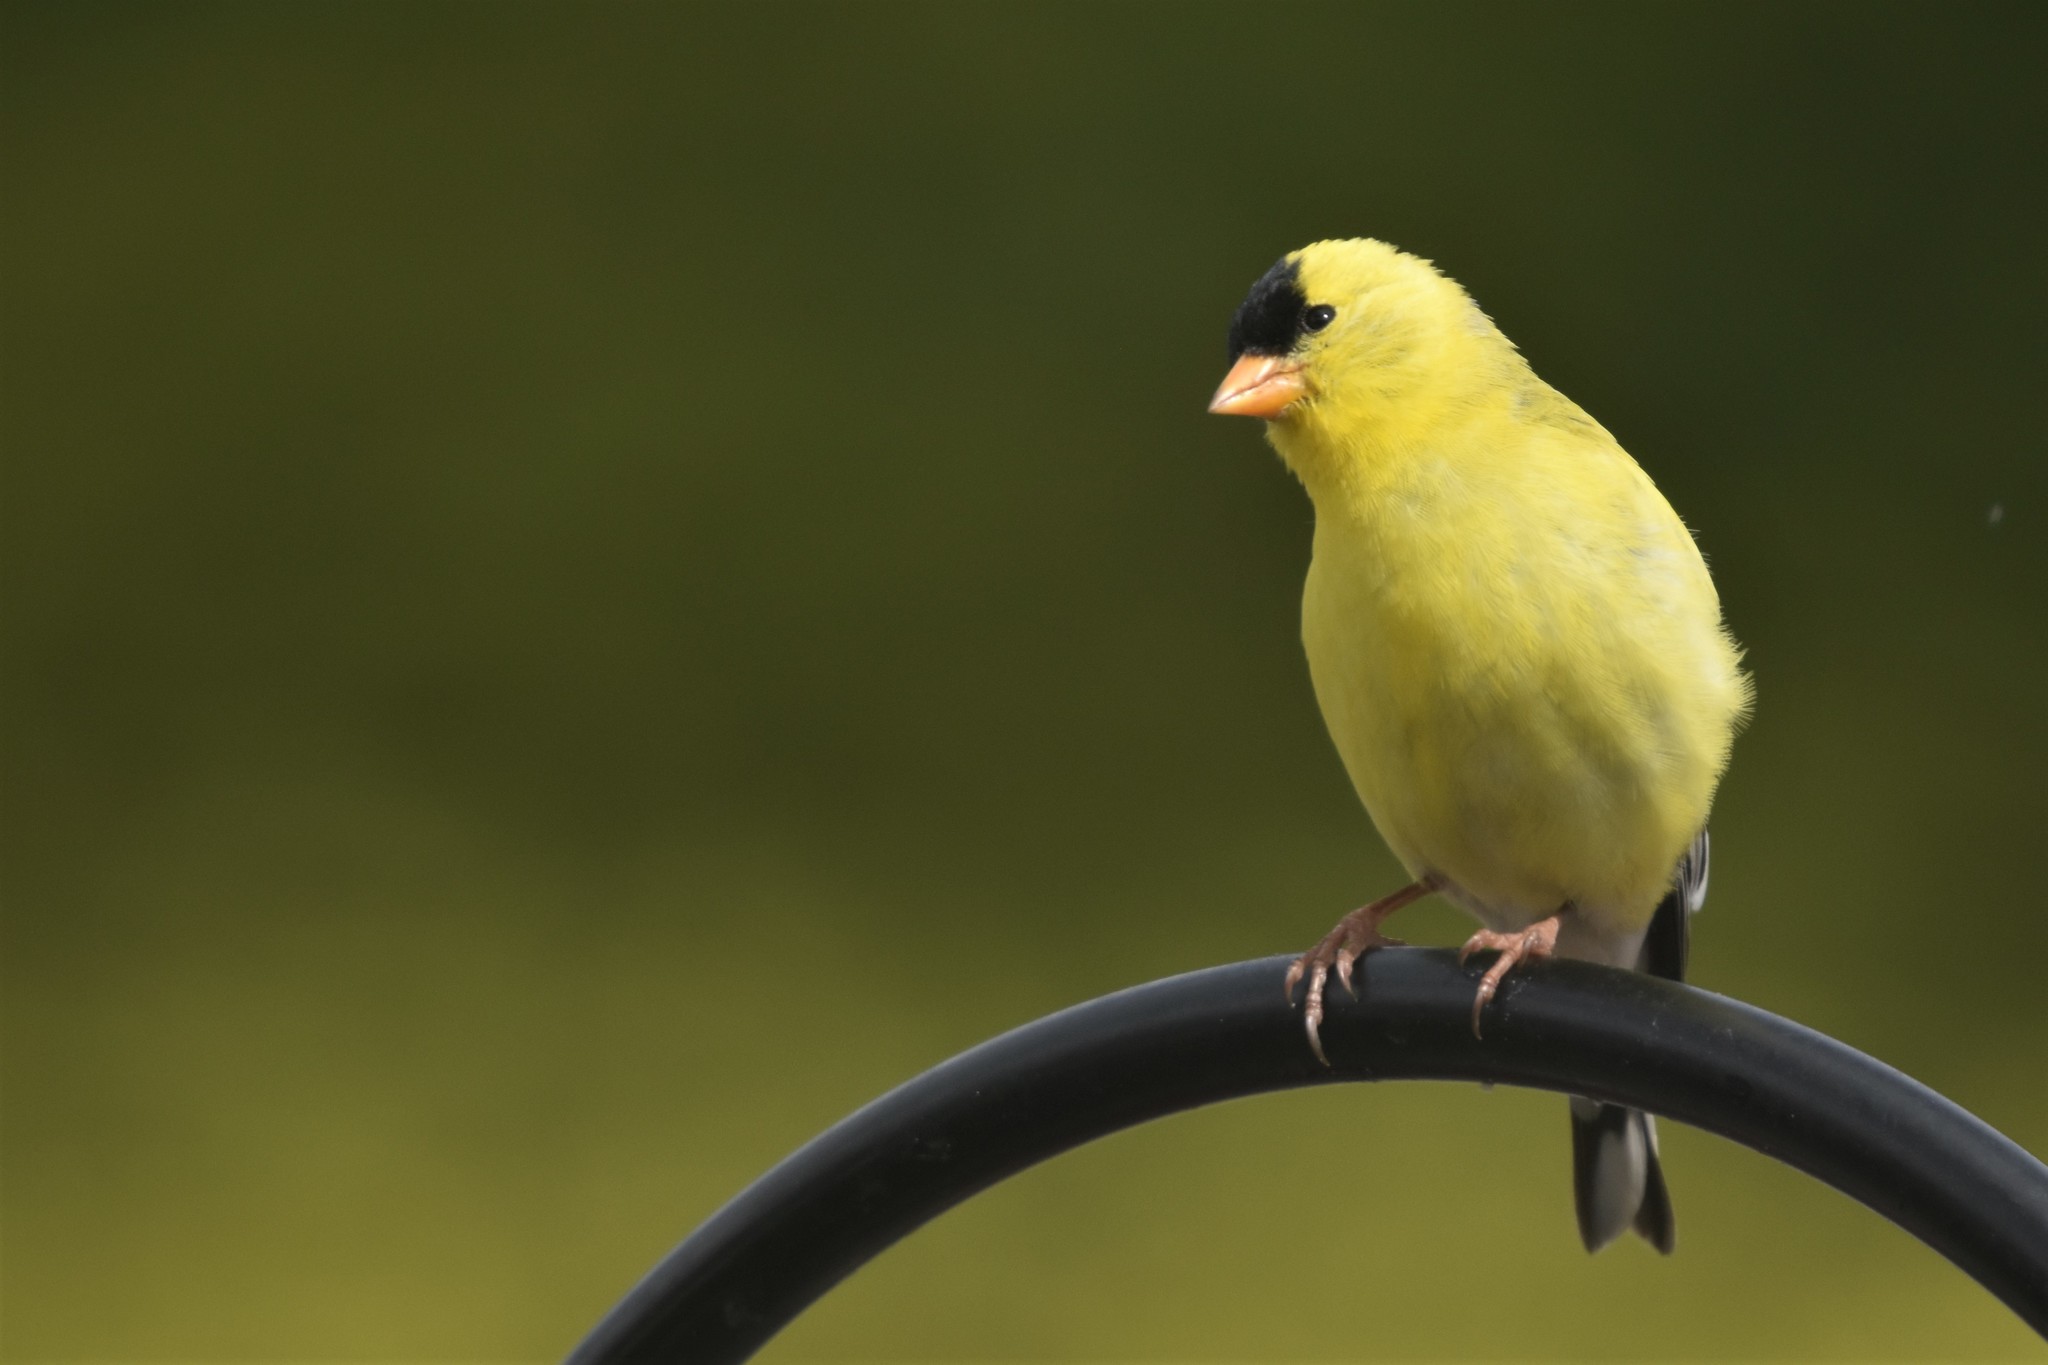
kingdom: Animalia
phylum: Chordata
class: Aves
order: Passeriformes
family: Fringillidae
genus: Spinus
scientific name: Spinus tristis
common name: American goldfinch
